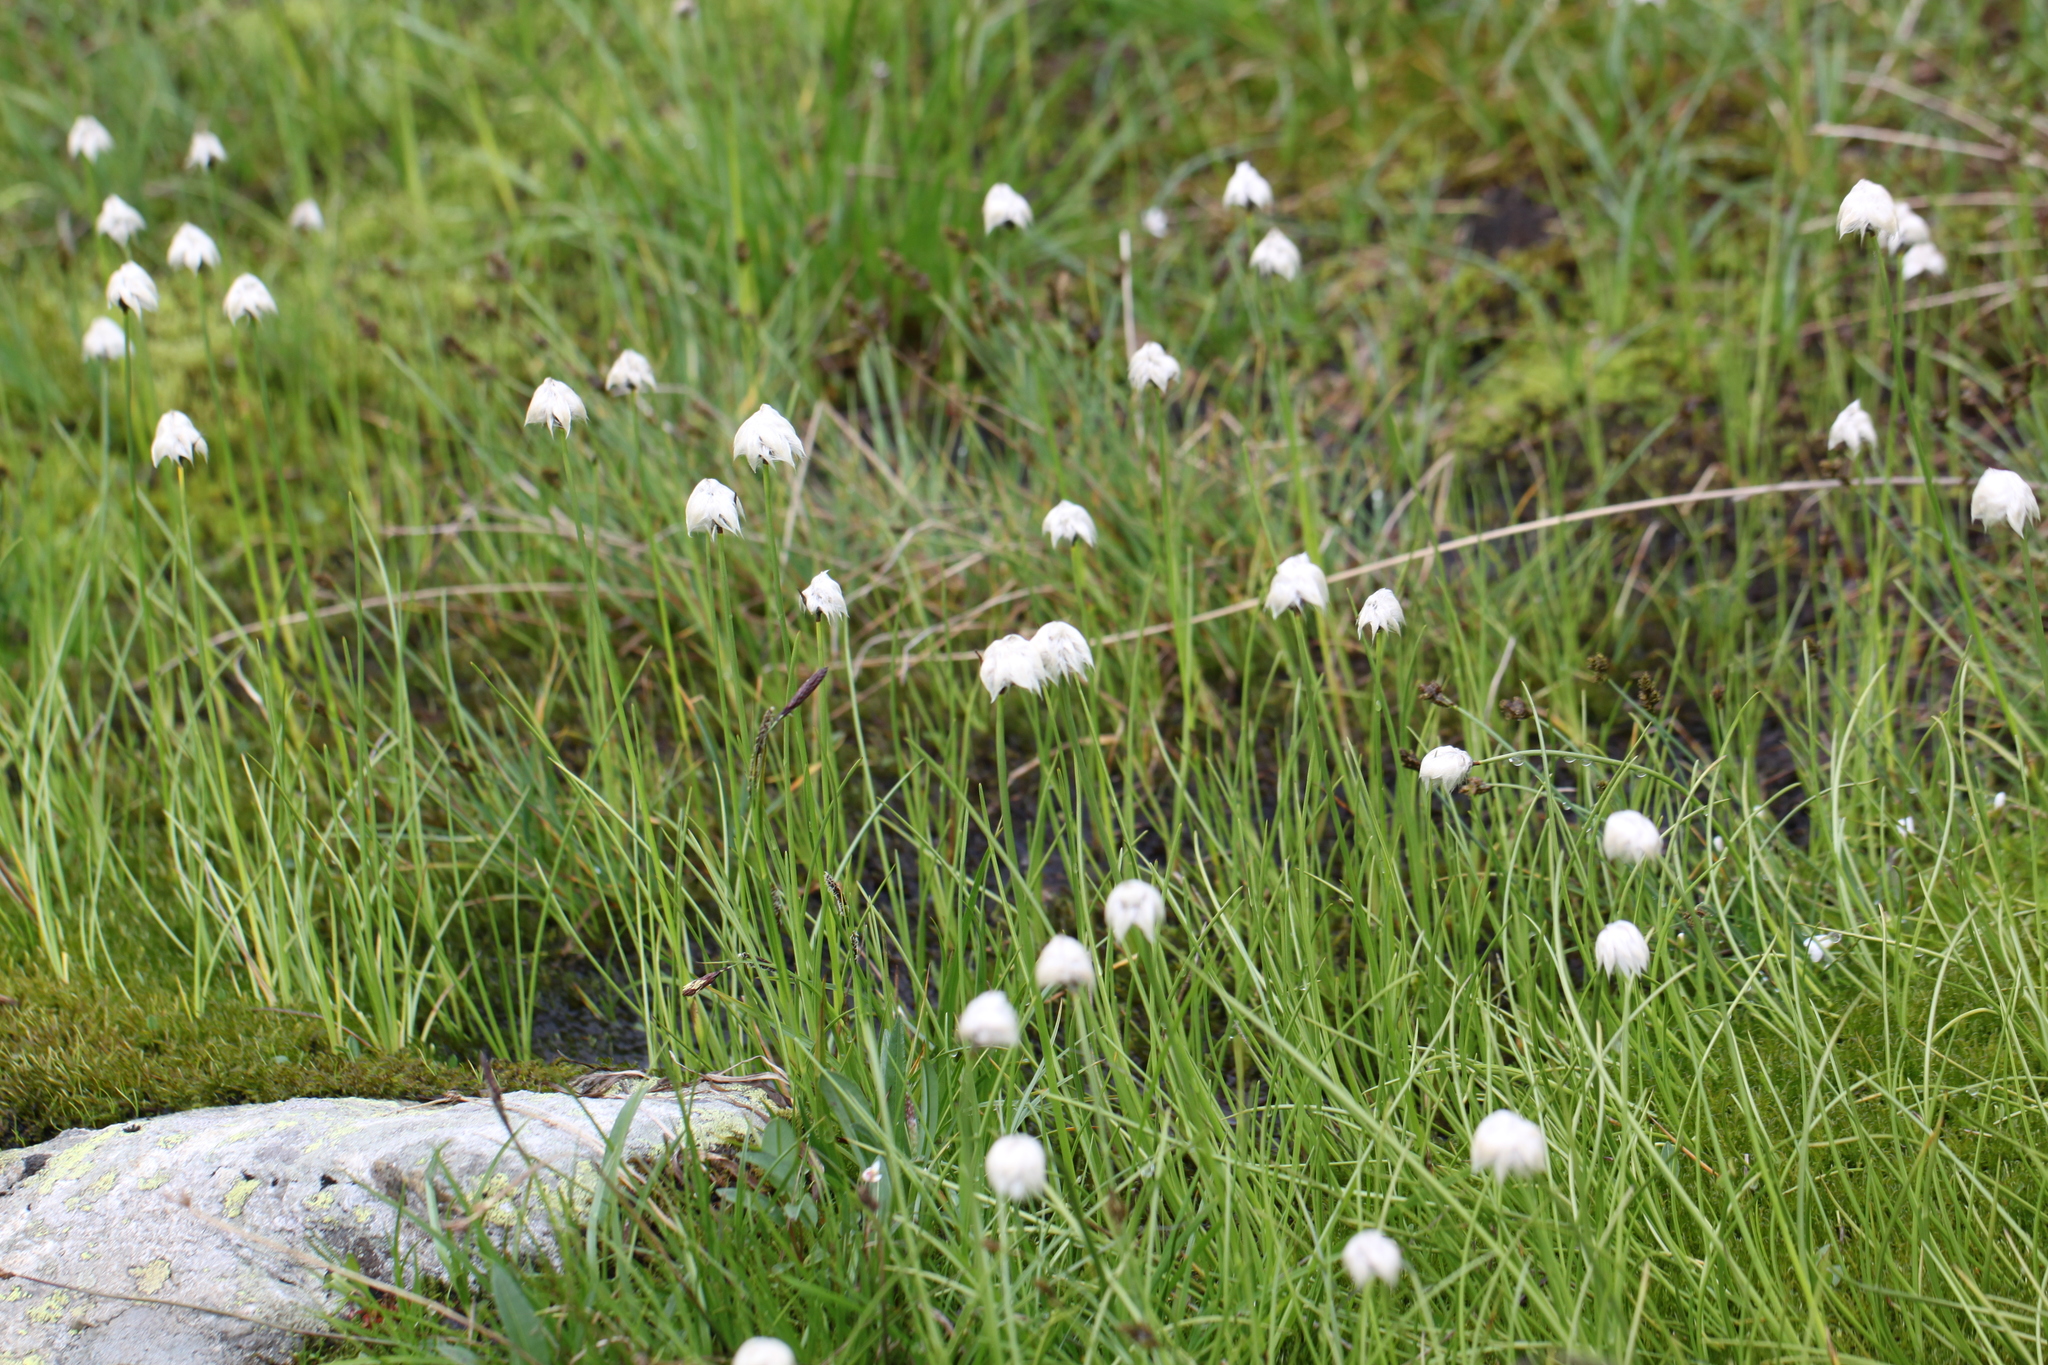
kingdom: Plantae
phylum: Tracheophyta
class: Liliopsida
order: Poales
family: Cyperaceae
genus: Eriophorum
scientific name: Eriophorum scheuchzeri
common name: Scheuchzer's cottongrass
